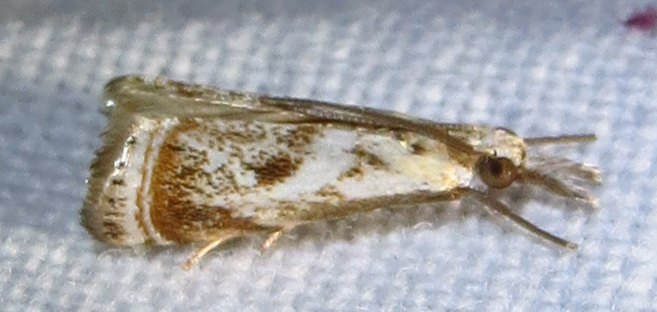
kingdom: Animalia
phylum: Arthropoda
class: Insecta
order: Lepidoptera
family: Crambidae
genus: Microcrambus
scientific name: Microcrambus elegans
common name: Elegant grass-veneer
